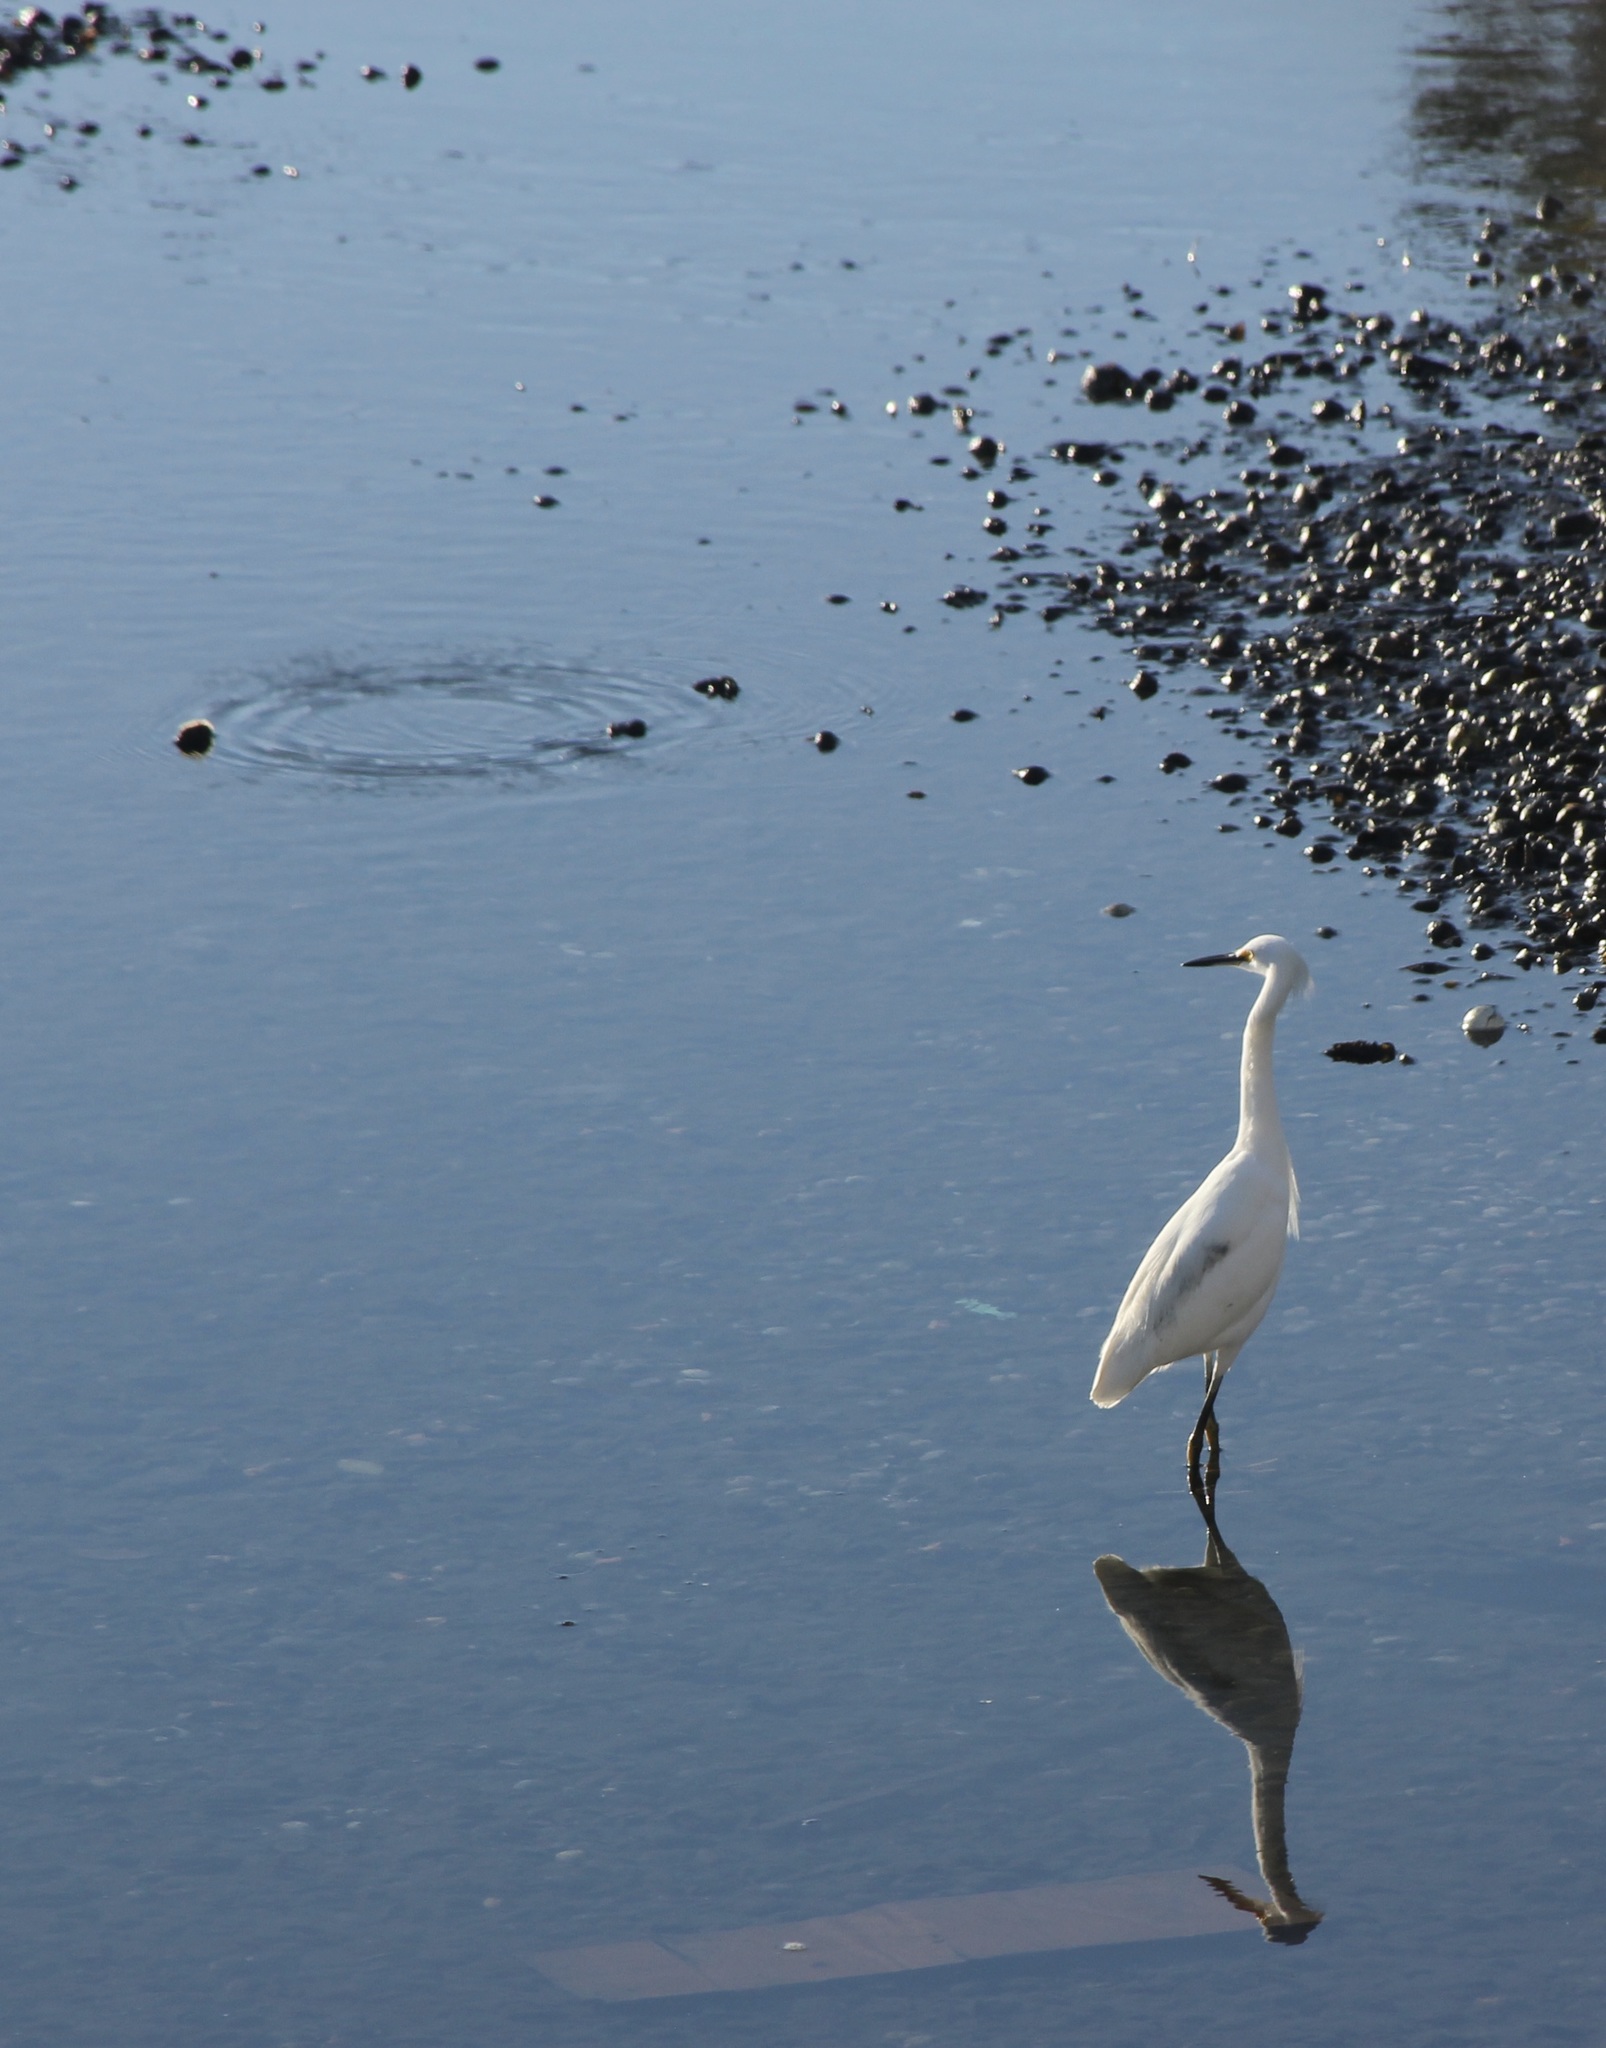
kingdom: Animalia
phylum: Chordata
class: Aves
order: Pelecaniformes
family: Ardeidae
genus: Egretta
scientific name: Egretta thula
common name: Snowy egret
